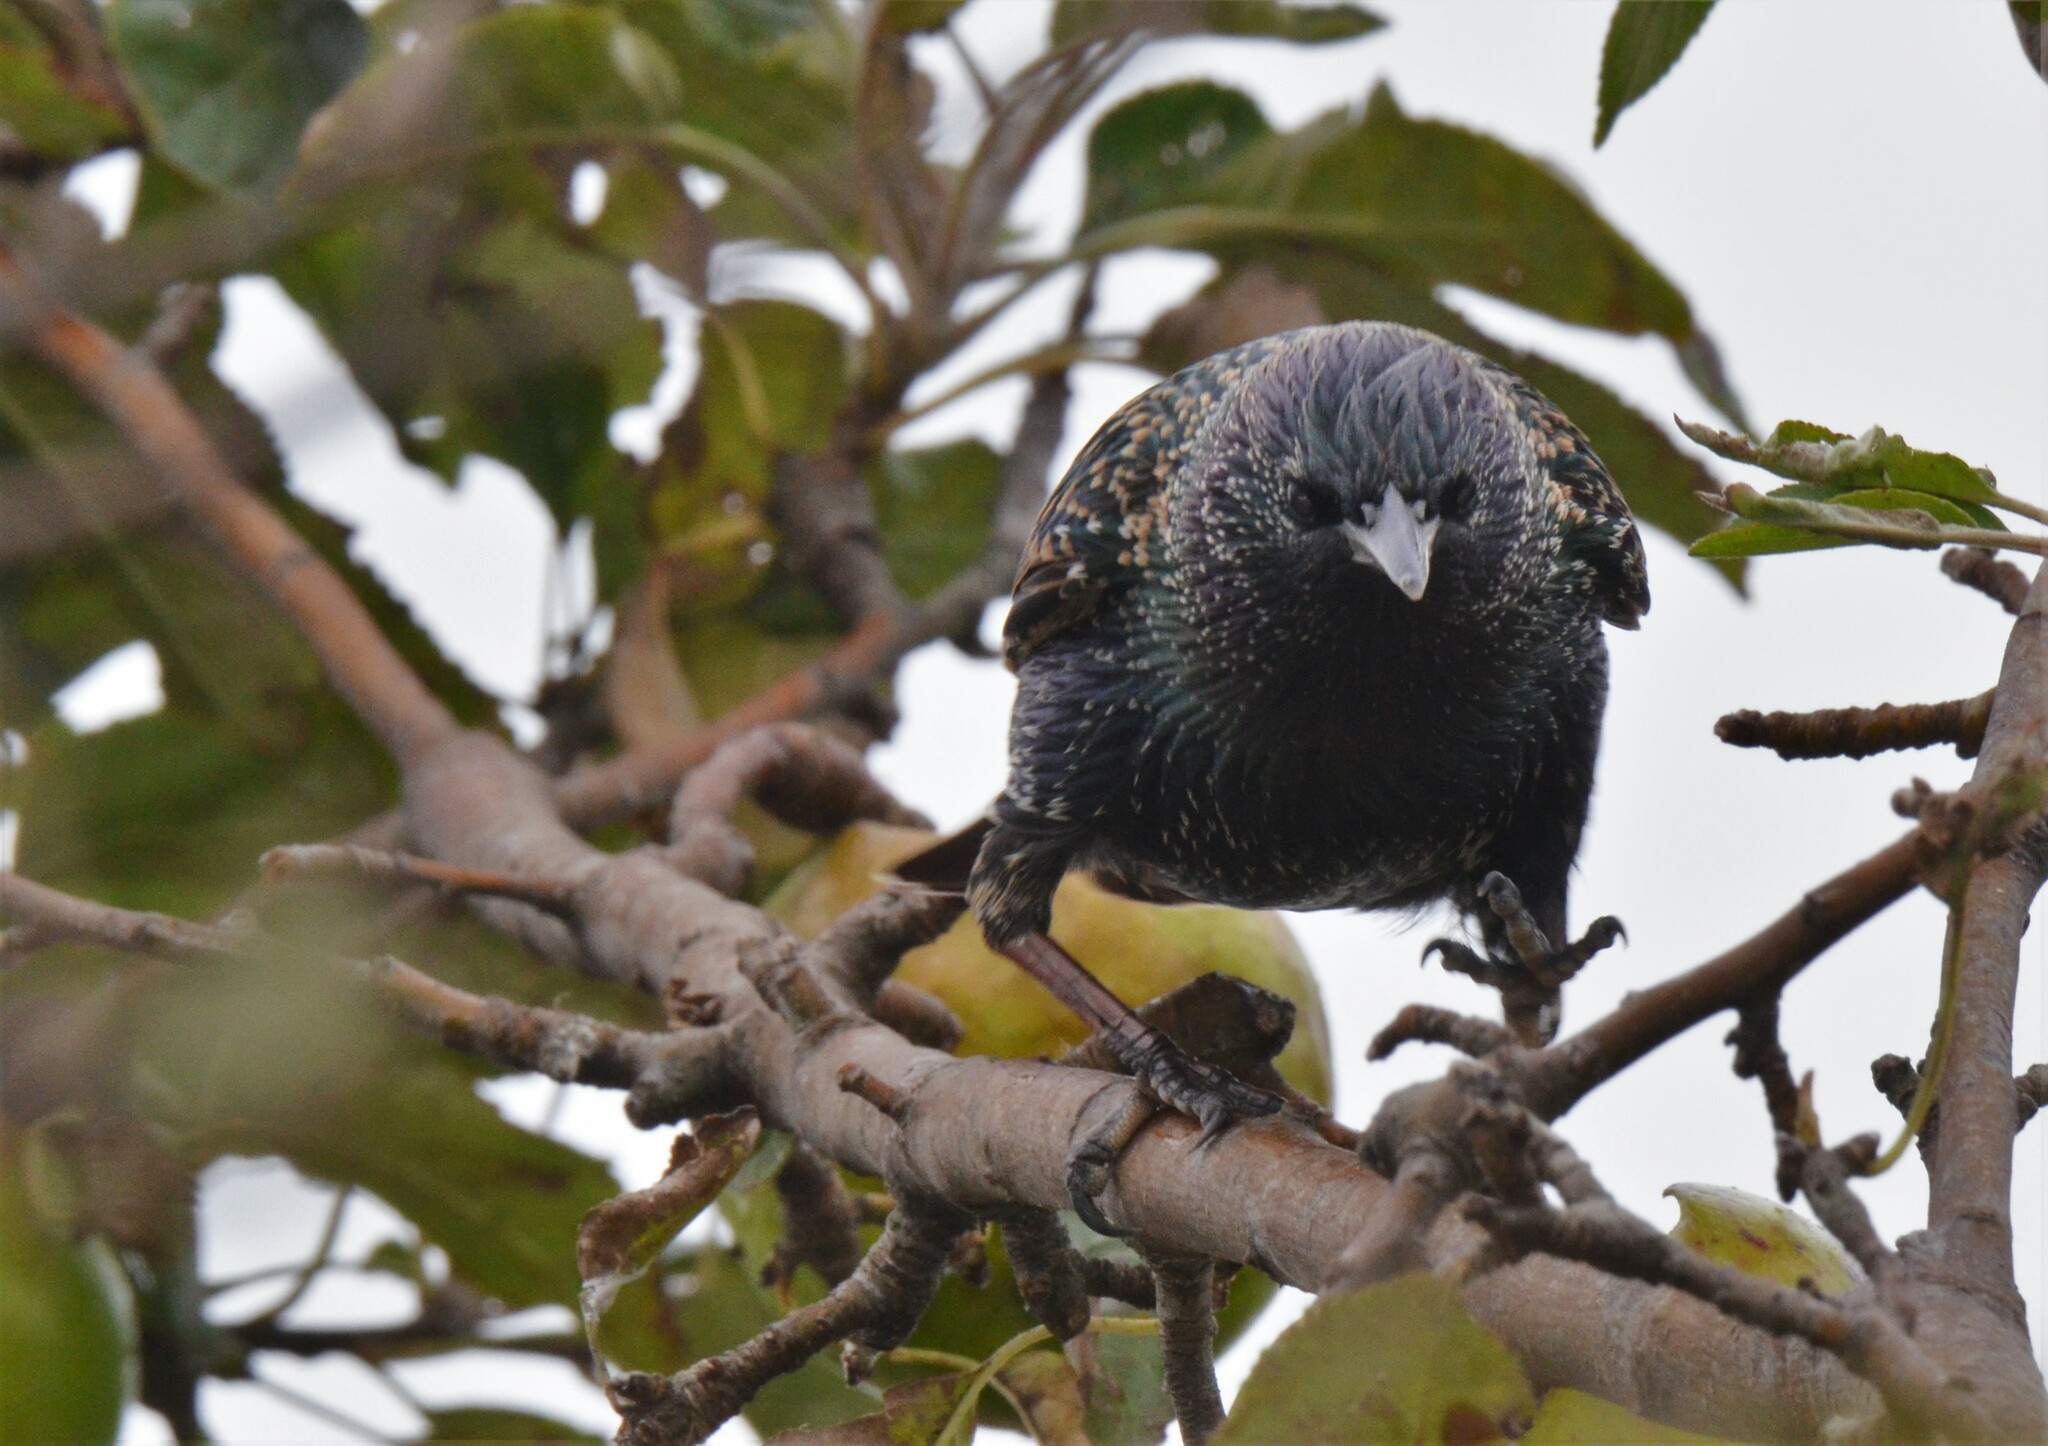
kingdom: Animalia
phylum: Chordata
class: Aves
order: Passeriformes
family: Sturnidae
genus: Sturnus
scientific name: Sturnus vulgaris
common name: Common starling
